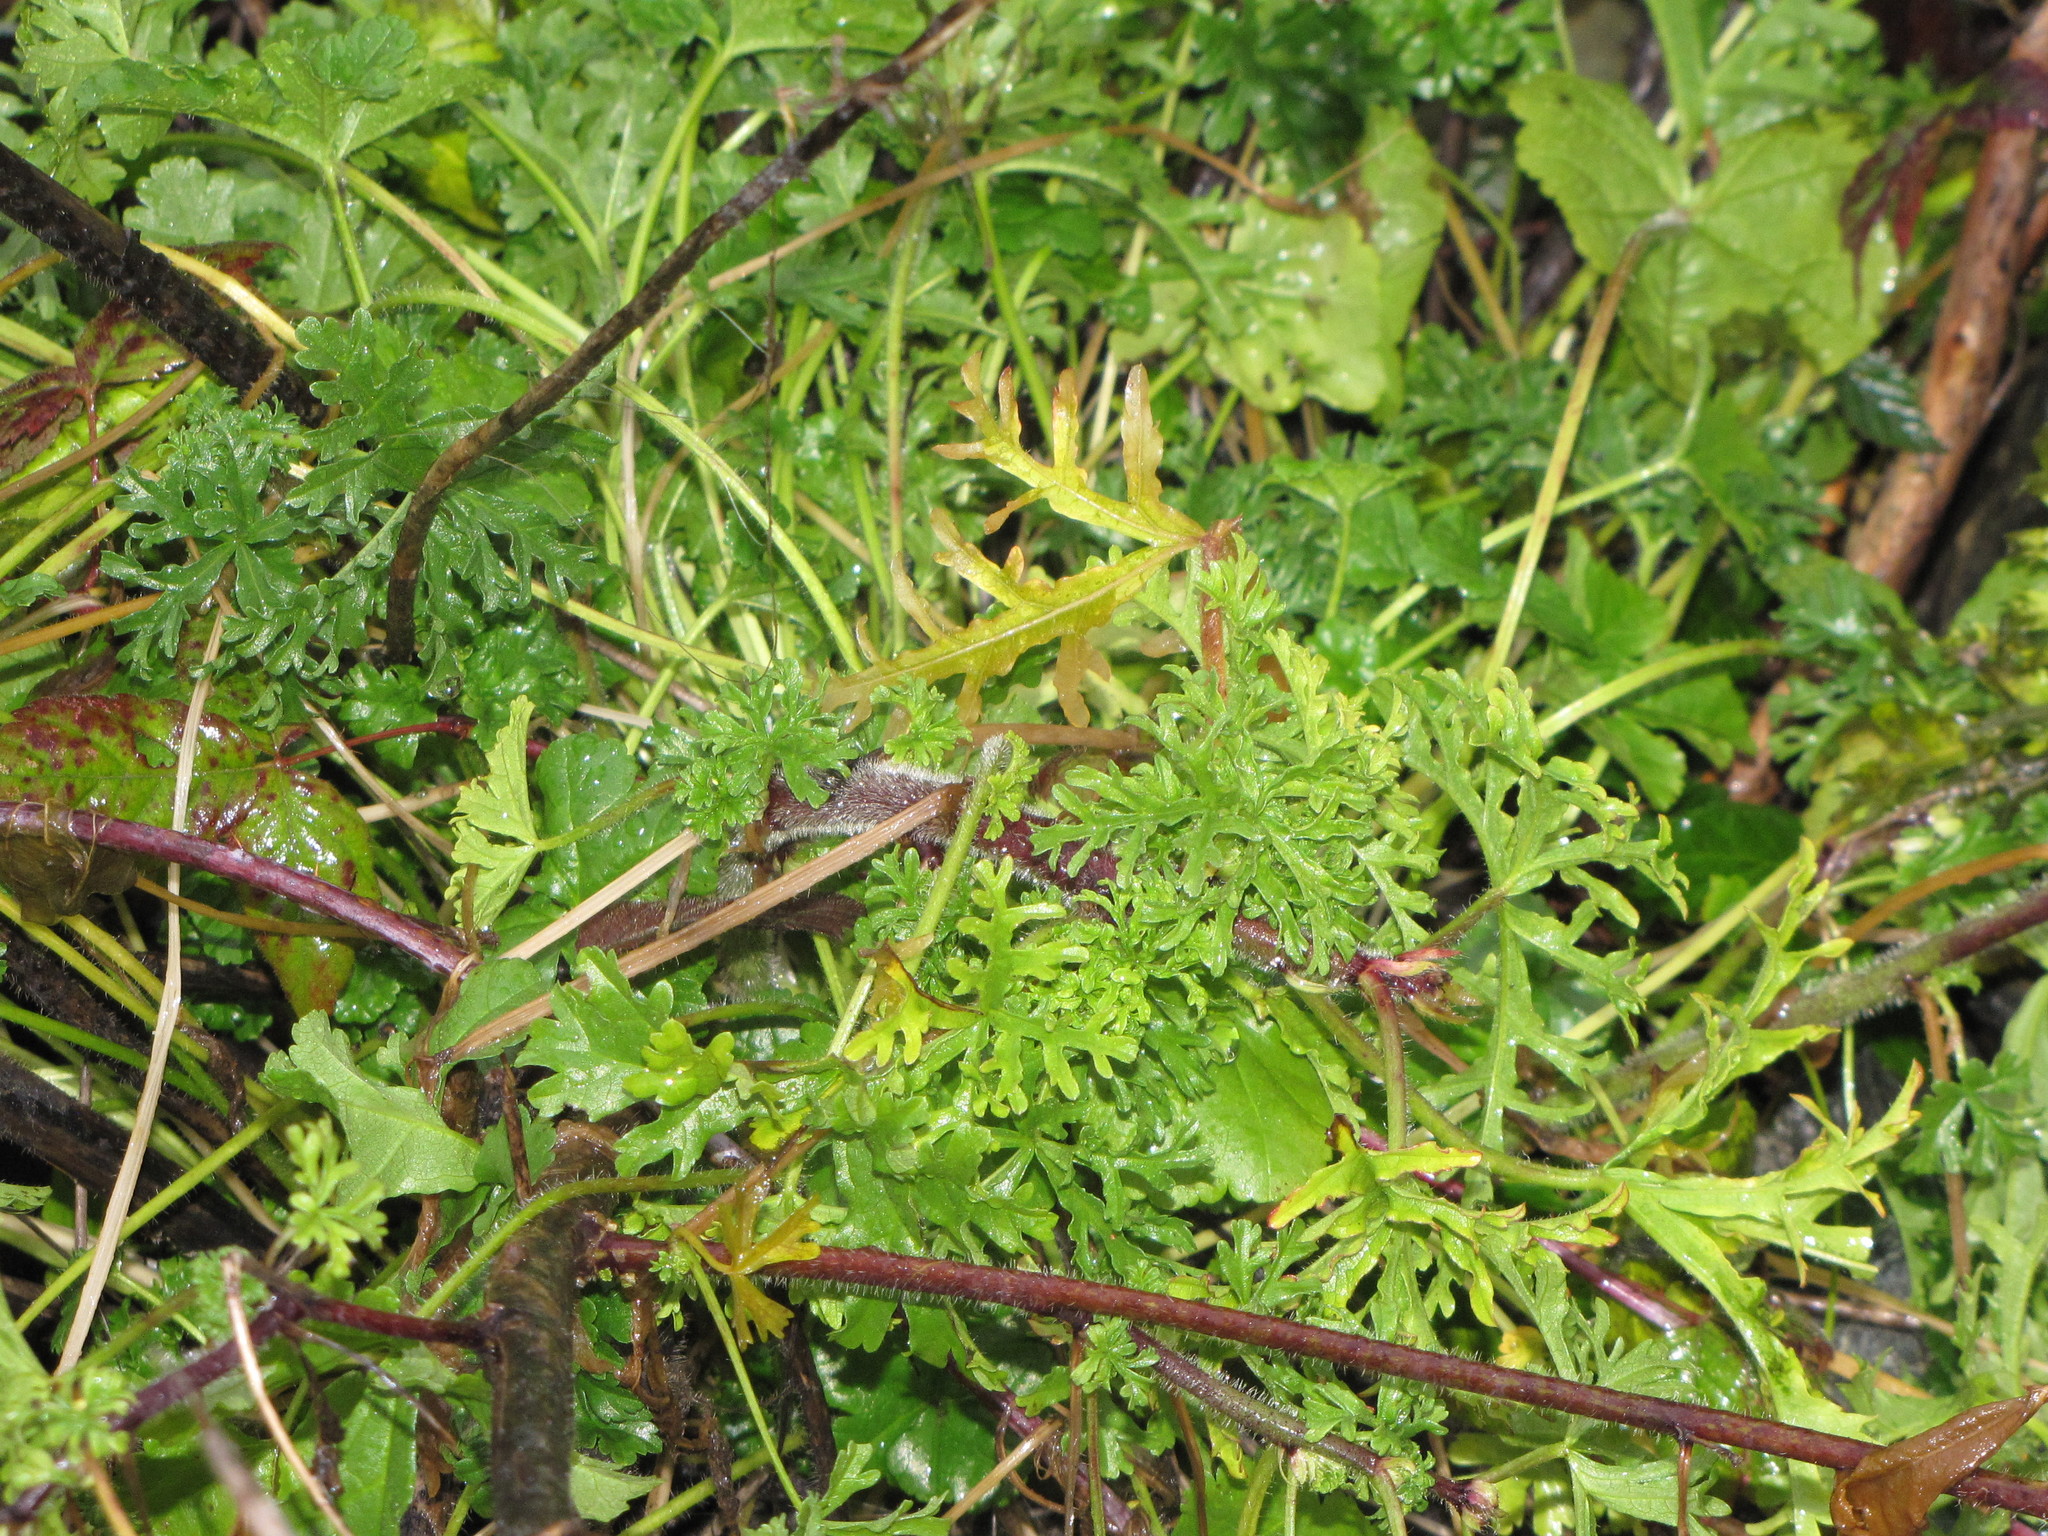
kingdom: Plantae
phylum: Tracheophyta
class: Magnoliopsida
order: Malvales
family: Malvaceae
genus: Malva
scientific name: Malva moschata
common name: Musk mallow
